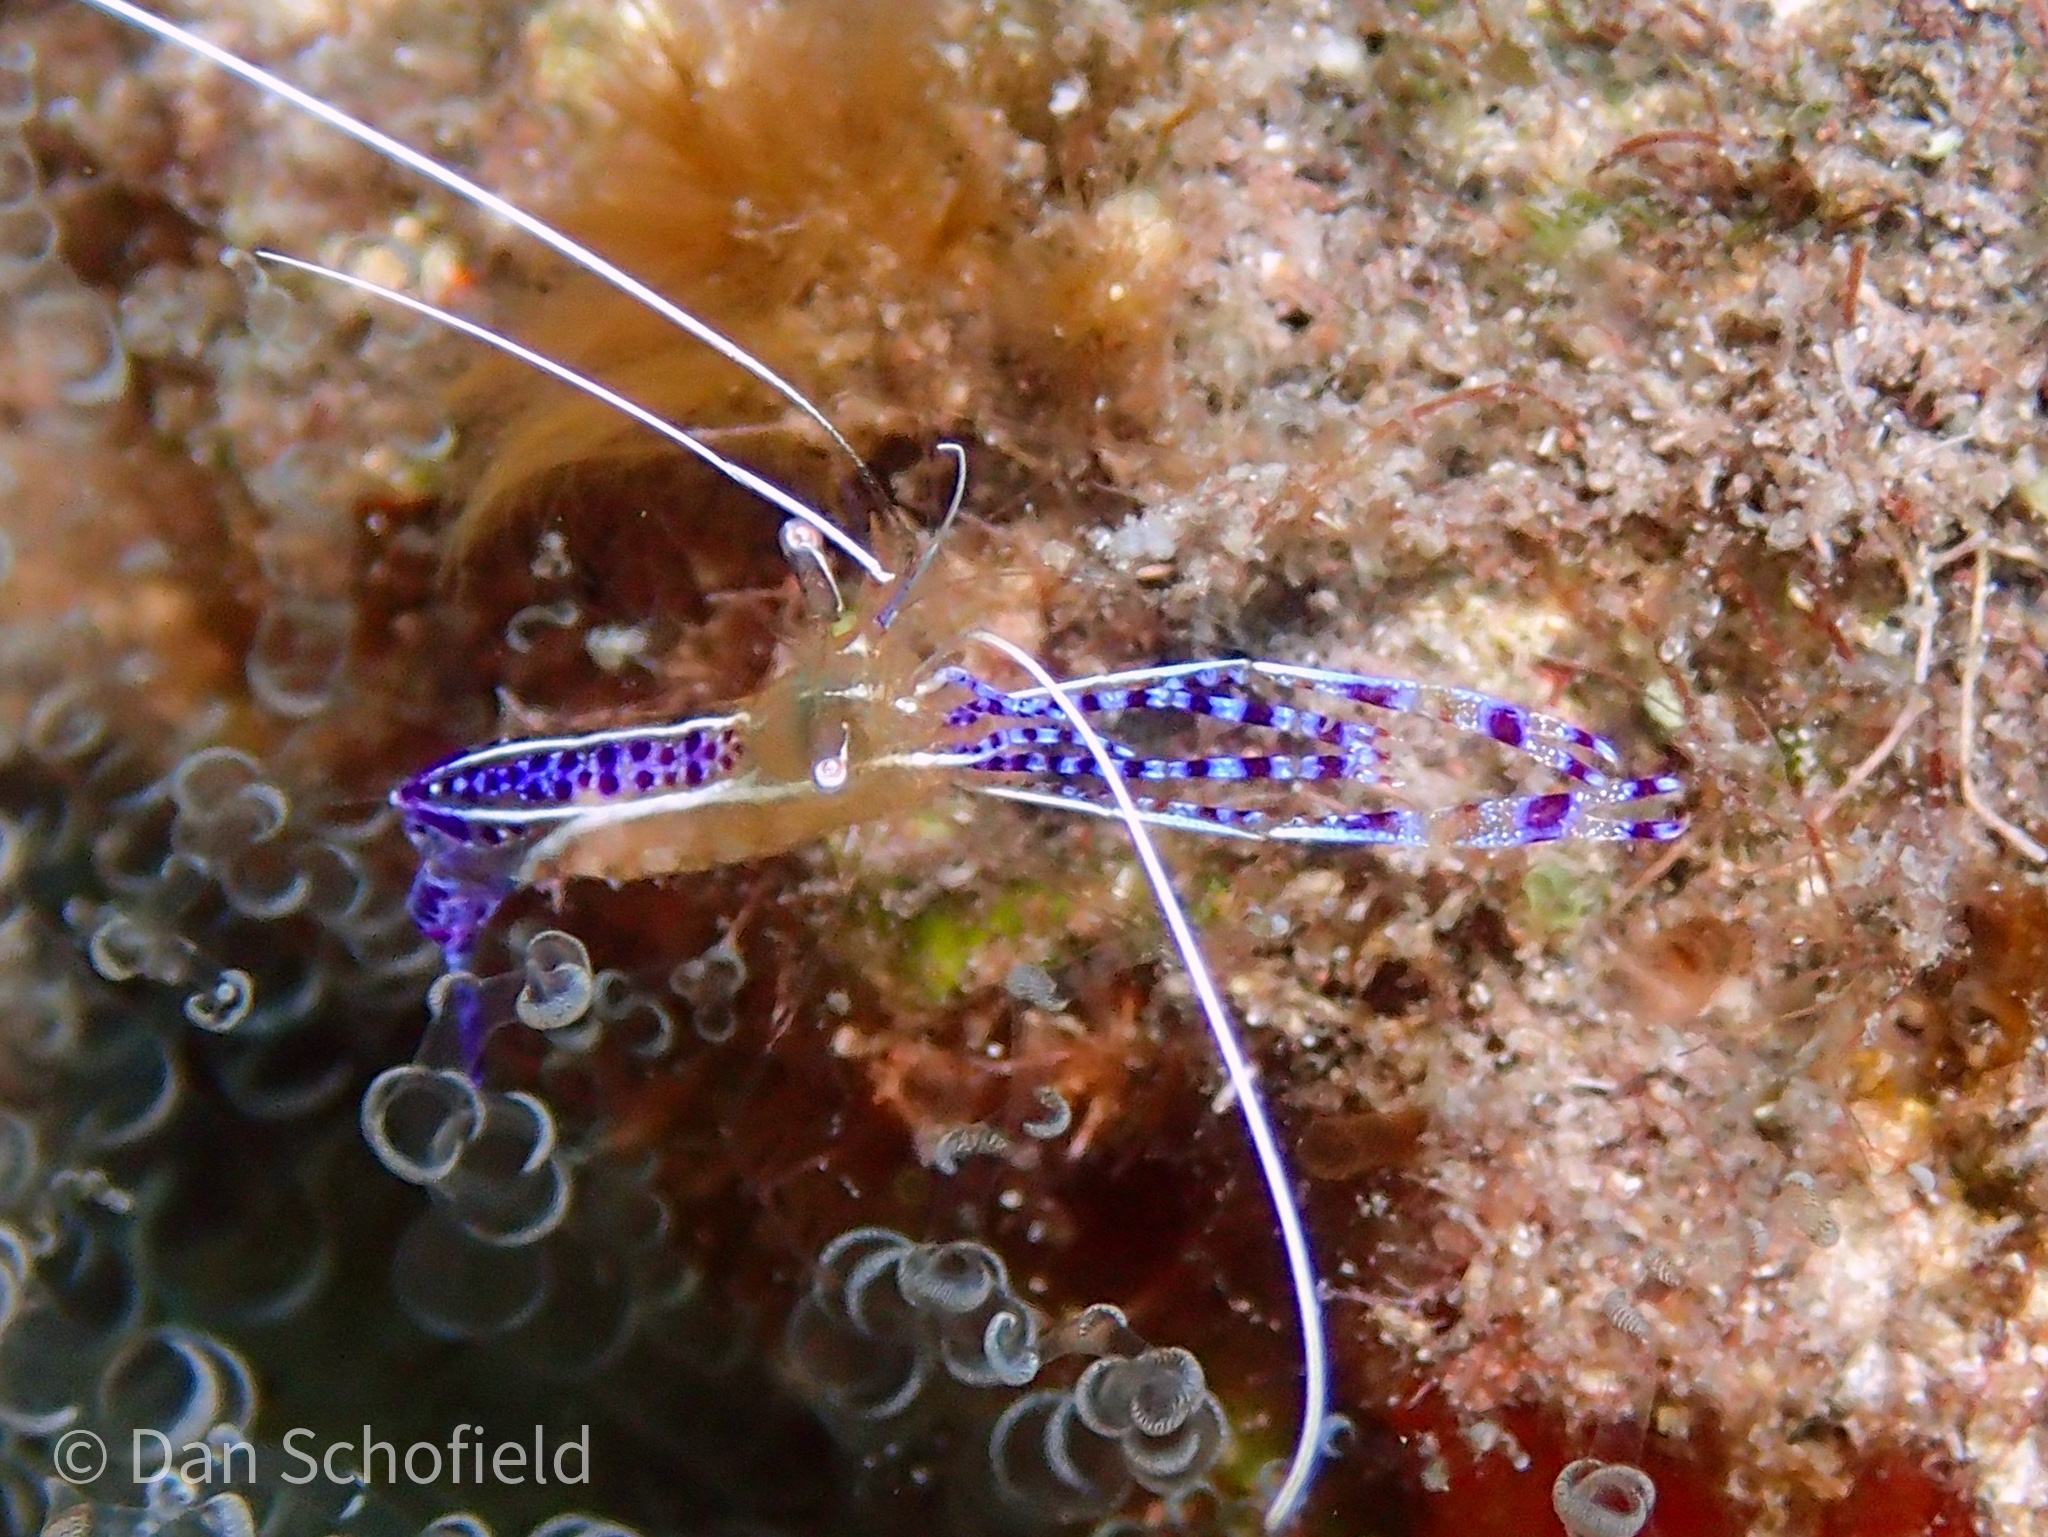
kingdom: Animalia
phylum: Arthropoda
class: Malacostraca
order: Decapoda
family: Palaemonidae
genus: Ancylomenes
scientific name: Ancylomenes pedersoni
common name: Pederson's cleaning shrimp
